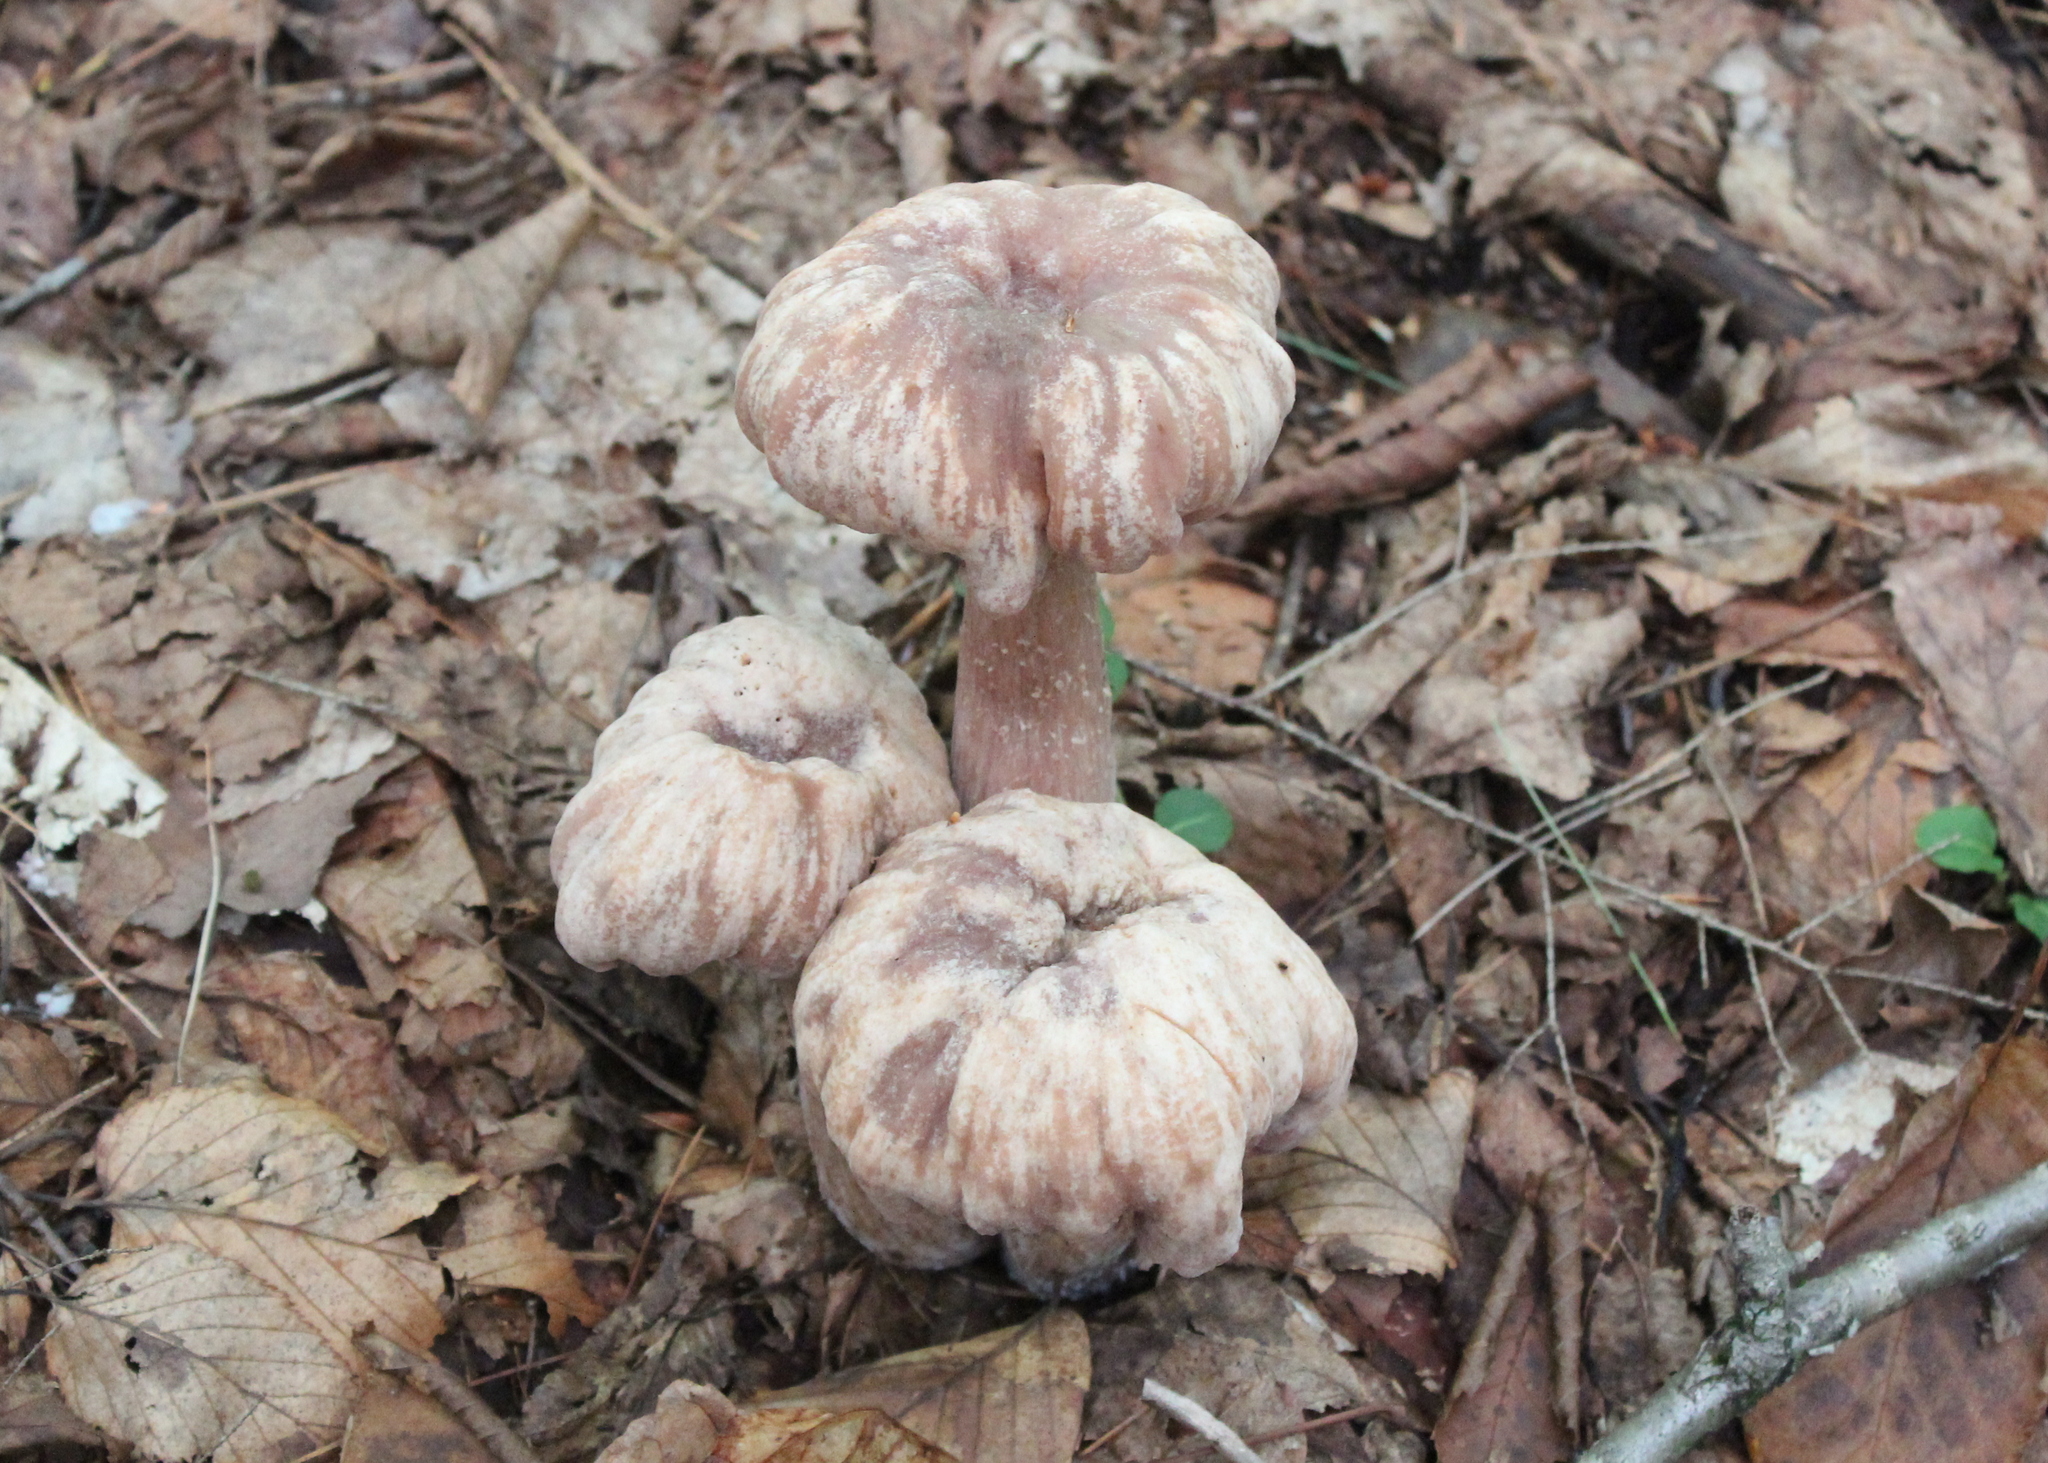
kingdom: Fungi
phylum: Basidiomycota
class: Agaricomycetes
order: Agaricales
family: Hydnangiaceae
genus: Laccaria
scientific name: Laccaria ochropurpurea
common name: Purple laccaria
